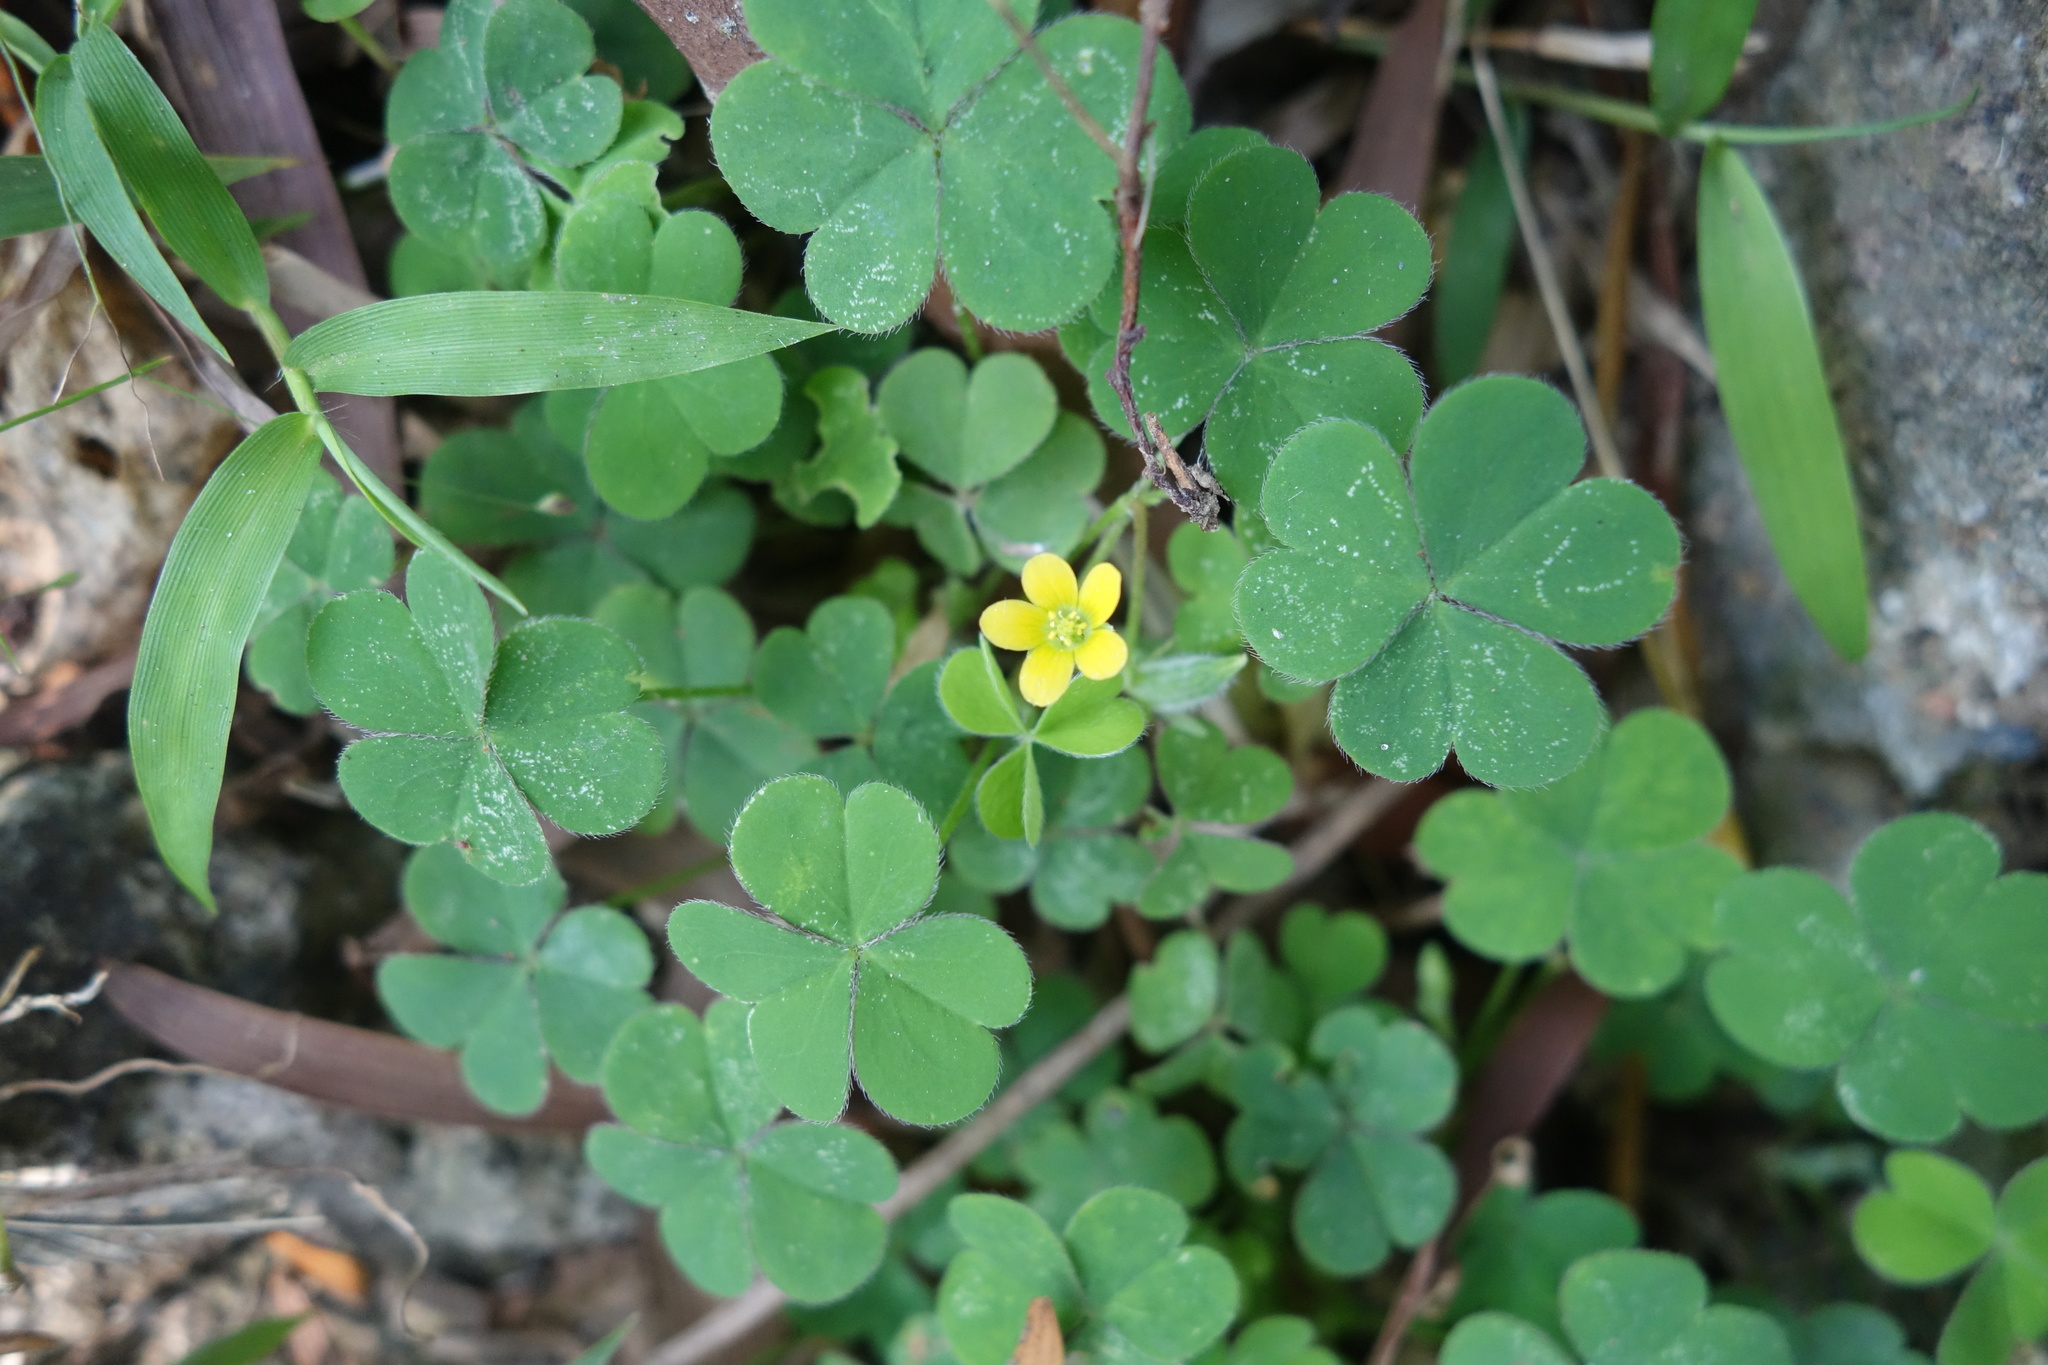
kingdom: Plantae
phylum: Tracheophyta
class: Magnoliopsida
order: Oxalidales
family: Oxalidaceae
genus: Oxalis
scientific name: Oxalis corniculata
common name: Procumbent yellow-sorrel
